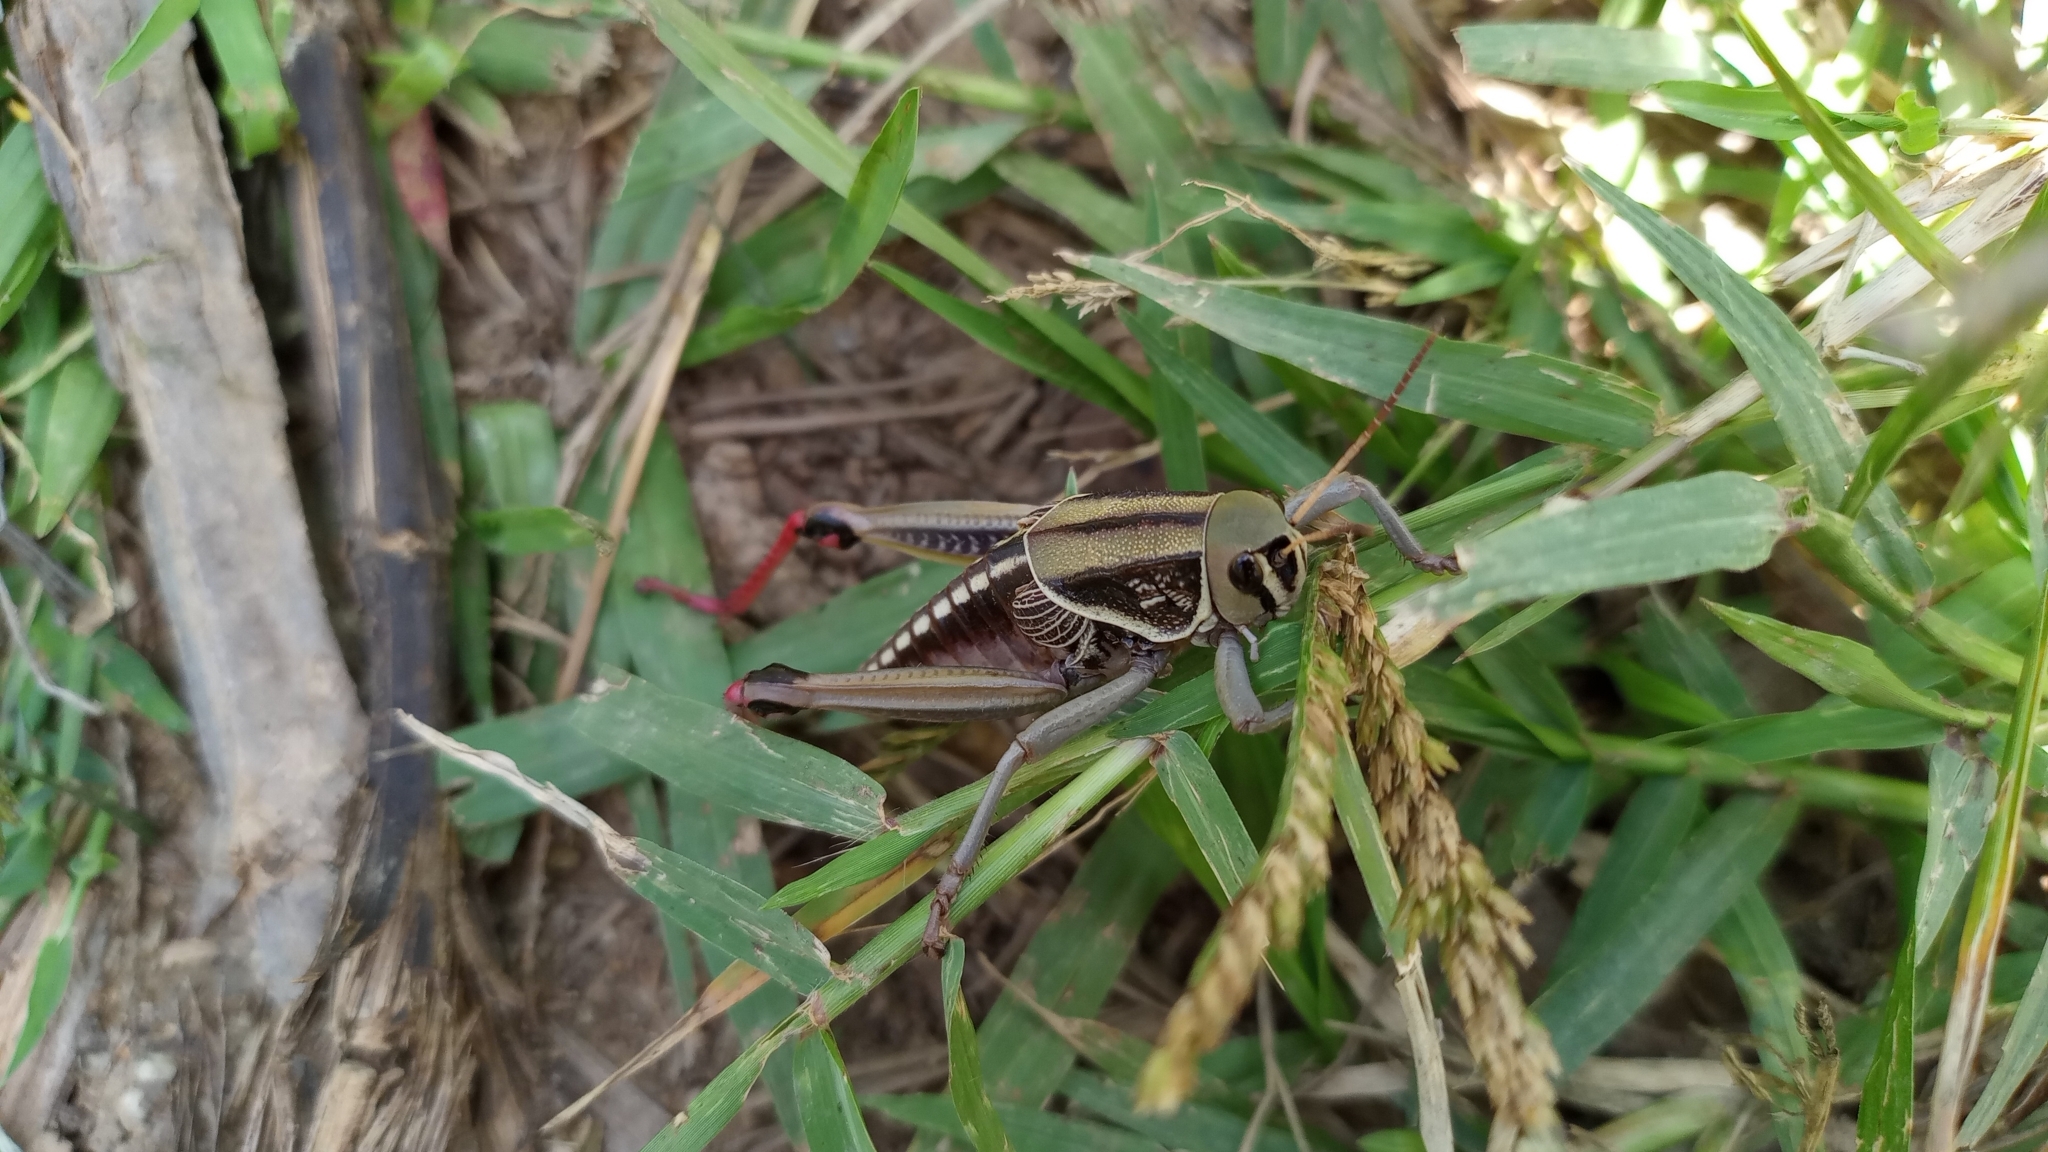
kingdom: Animalia
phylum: Arthropoda
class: Insecta
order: Orthoptera
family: Romaleidae
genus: Brachystola
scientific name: Brachystola mexicana
